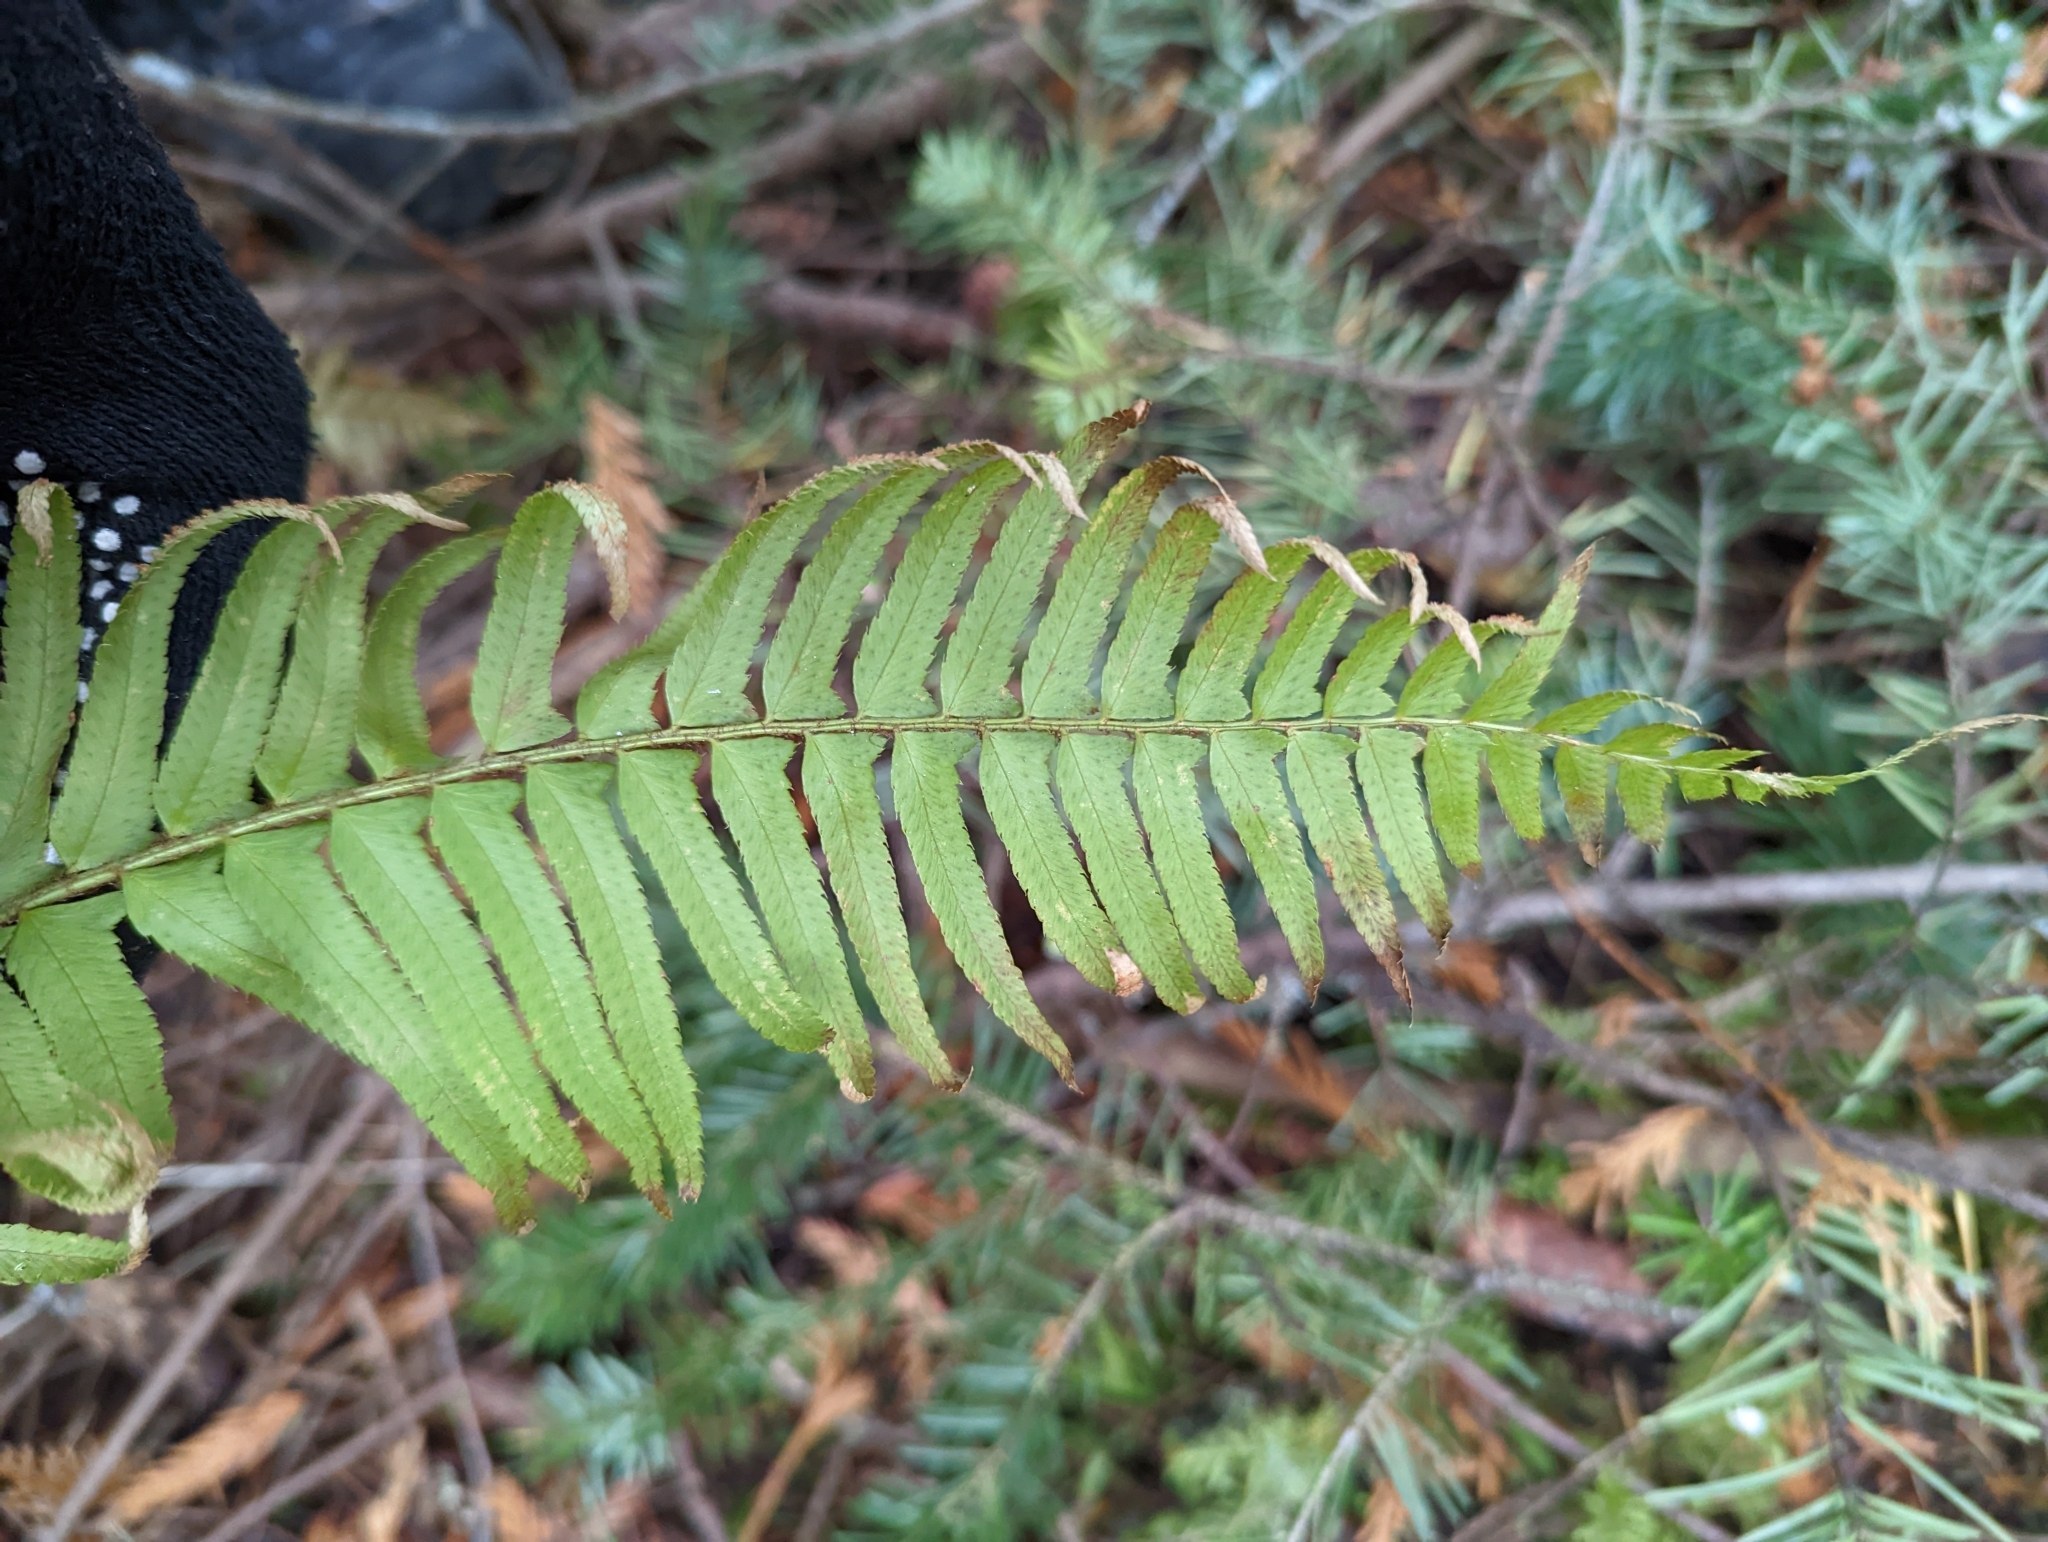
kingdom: Plantae
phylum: Tracheophyta
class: Polypodiopsida
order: Polypodiales
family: Dryopteridaceae
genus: Polystichum
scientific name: Polystichum munitum
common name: Western sword-fern
